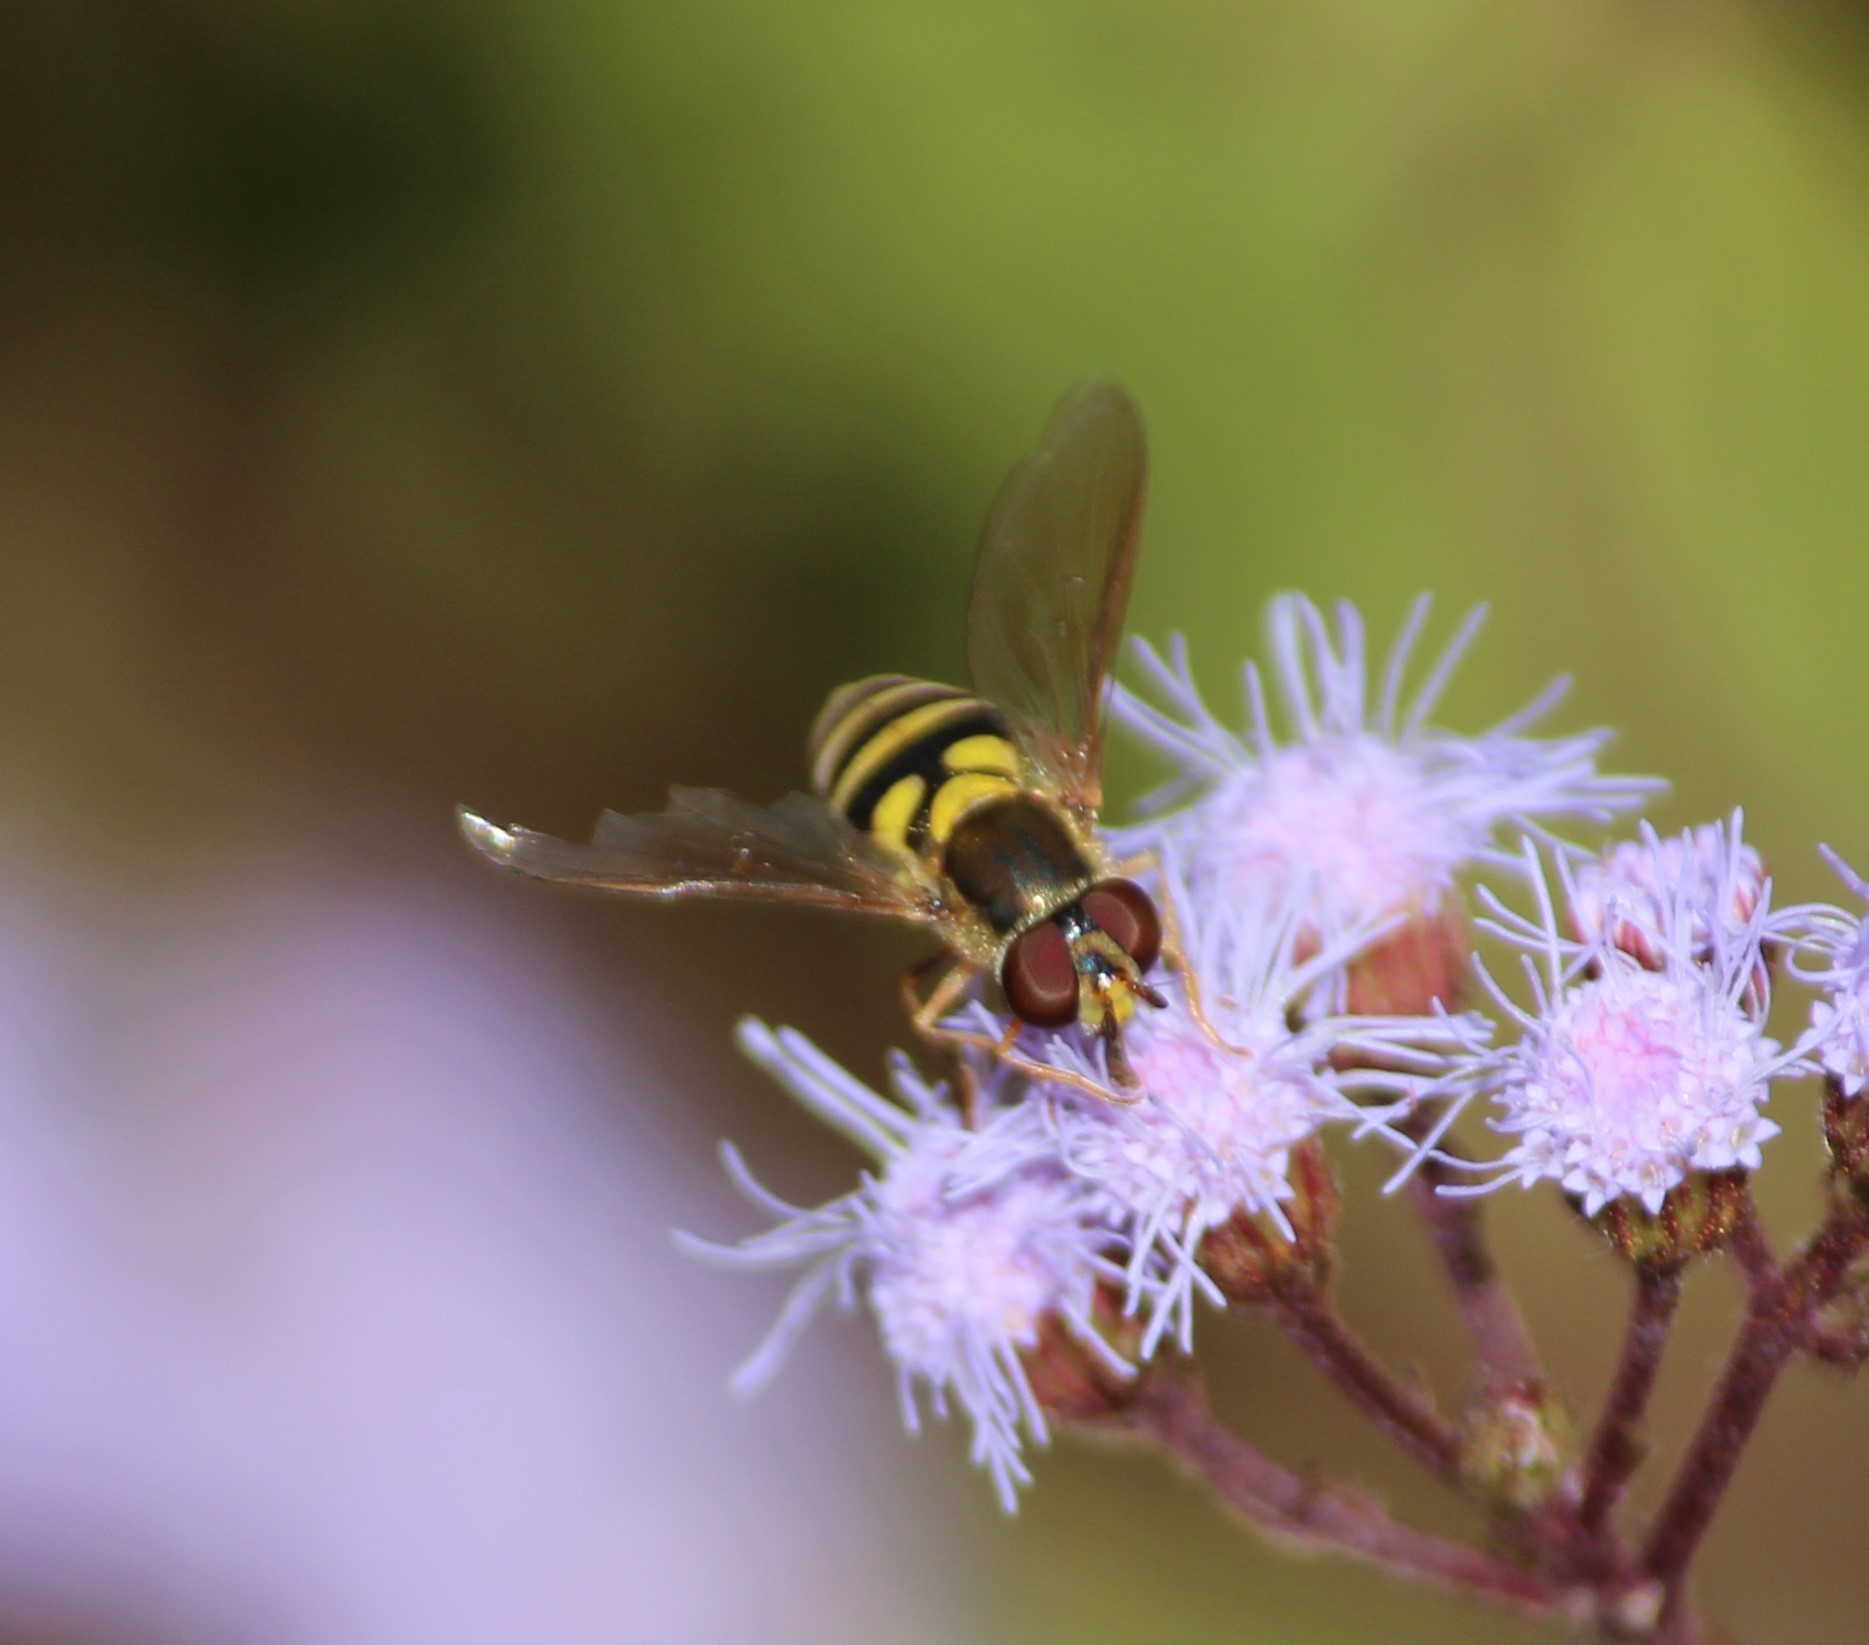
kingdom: Animalia
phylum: Arthropoda
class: Insecta
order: Diptera
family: Syrphidae
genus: Syrphus
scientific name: Syrphus rectus
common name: Yellow-legged flower fly
